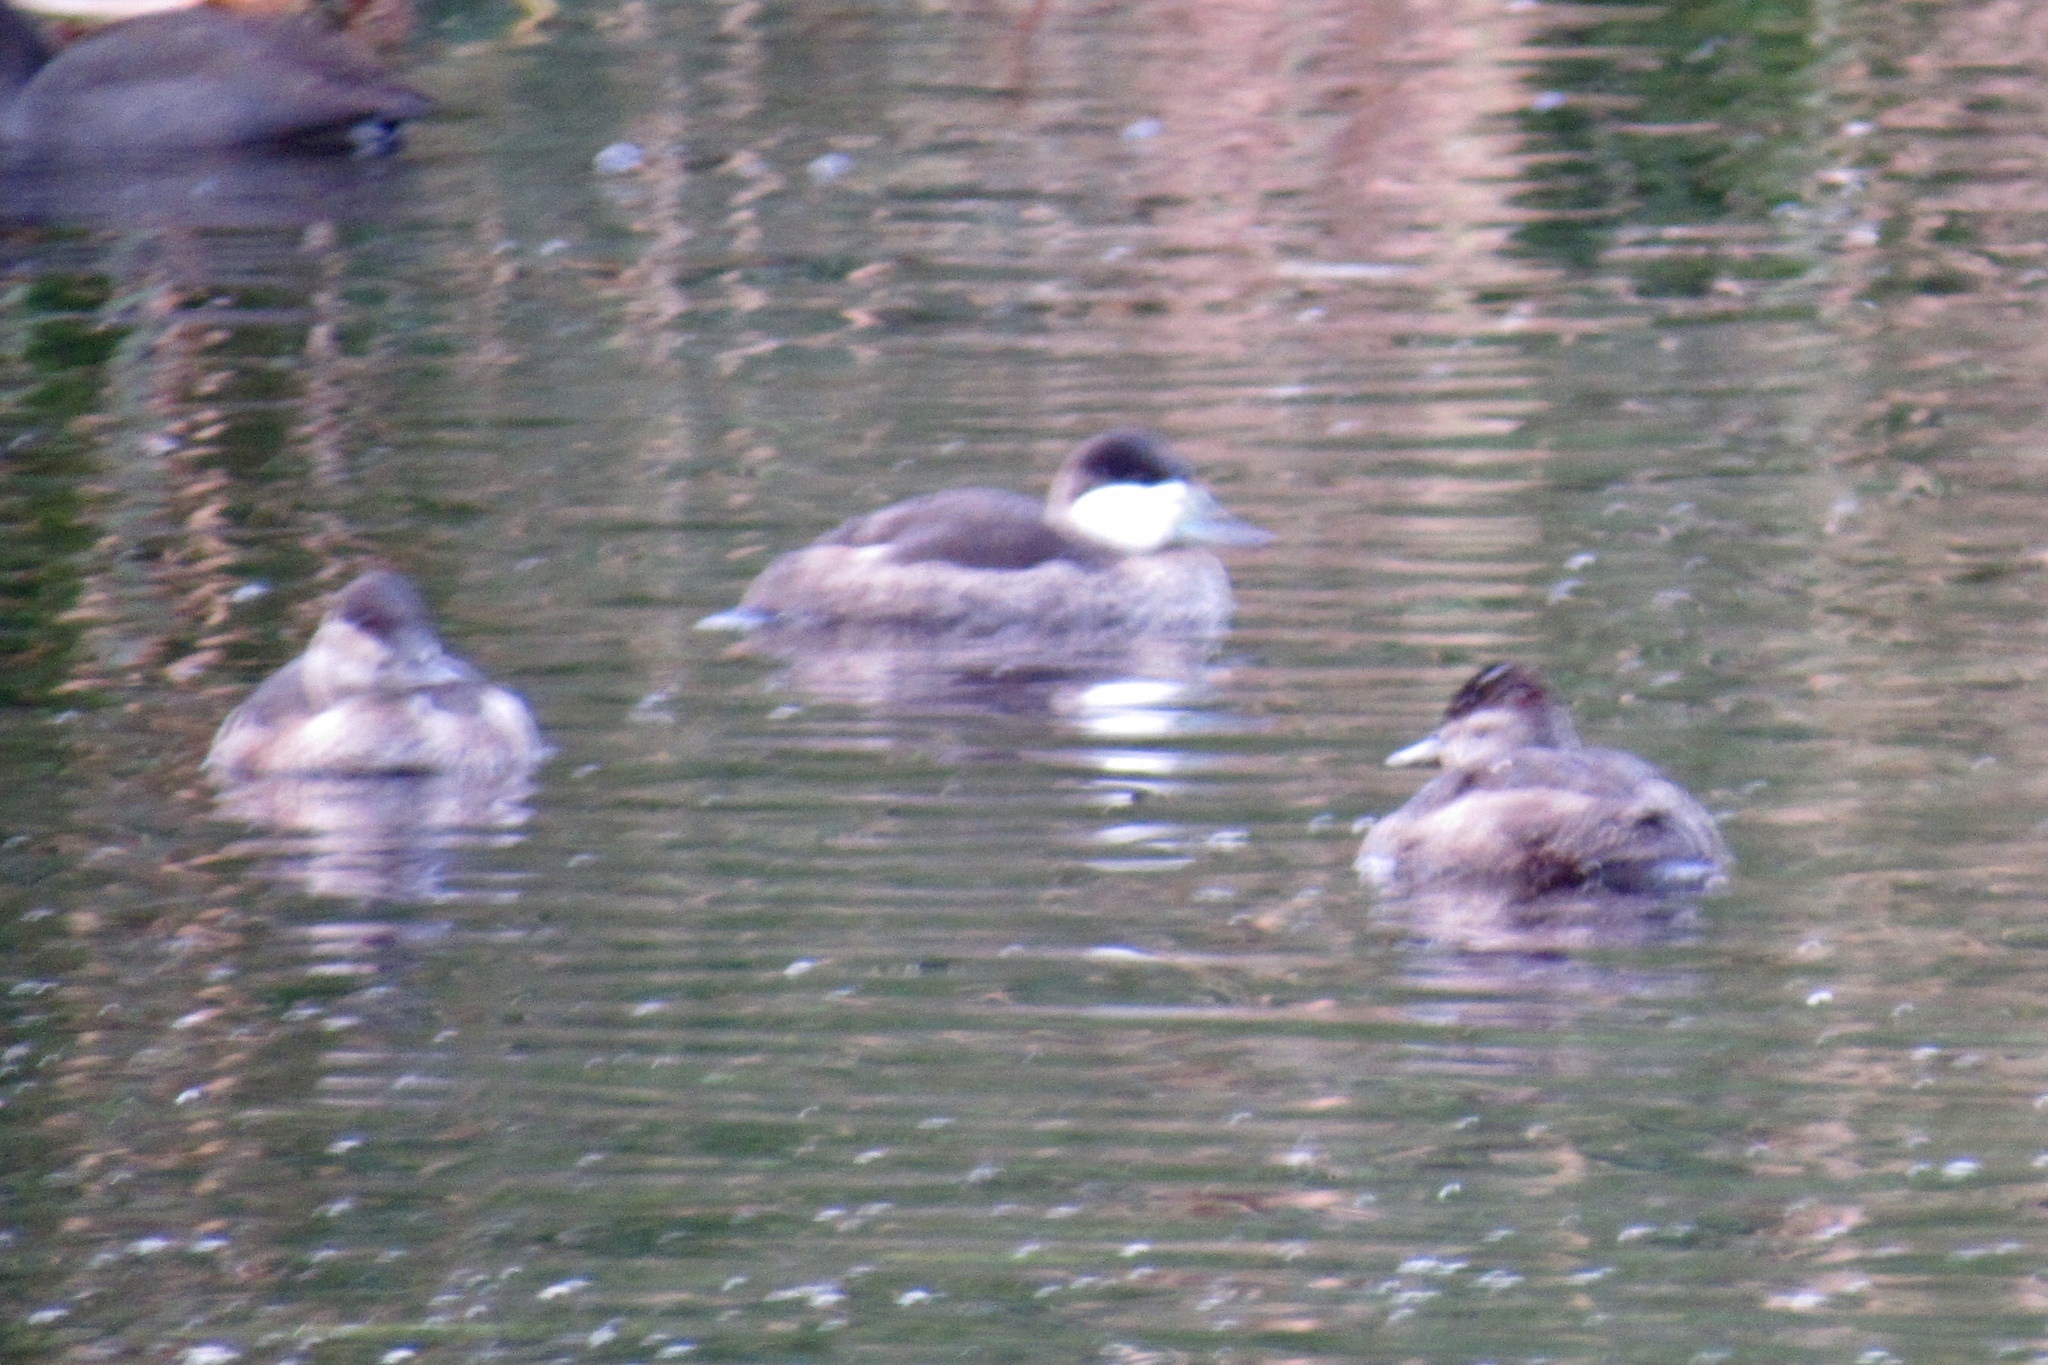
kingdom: Animalia
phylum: Chordata
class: Aves
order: Anseriformes
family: Anatidae
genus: Oxyura
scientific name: Oxyura jamaicensis
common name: Ruddy duck
